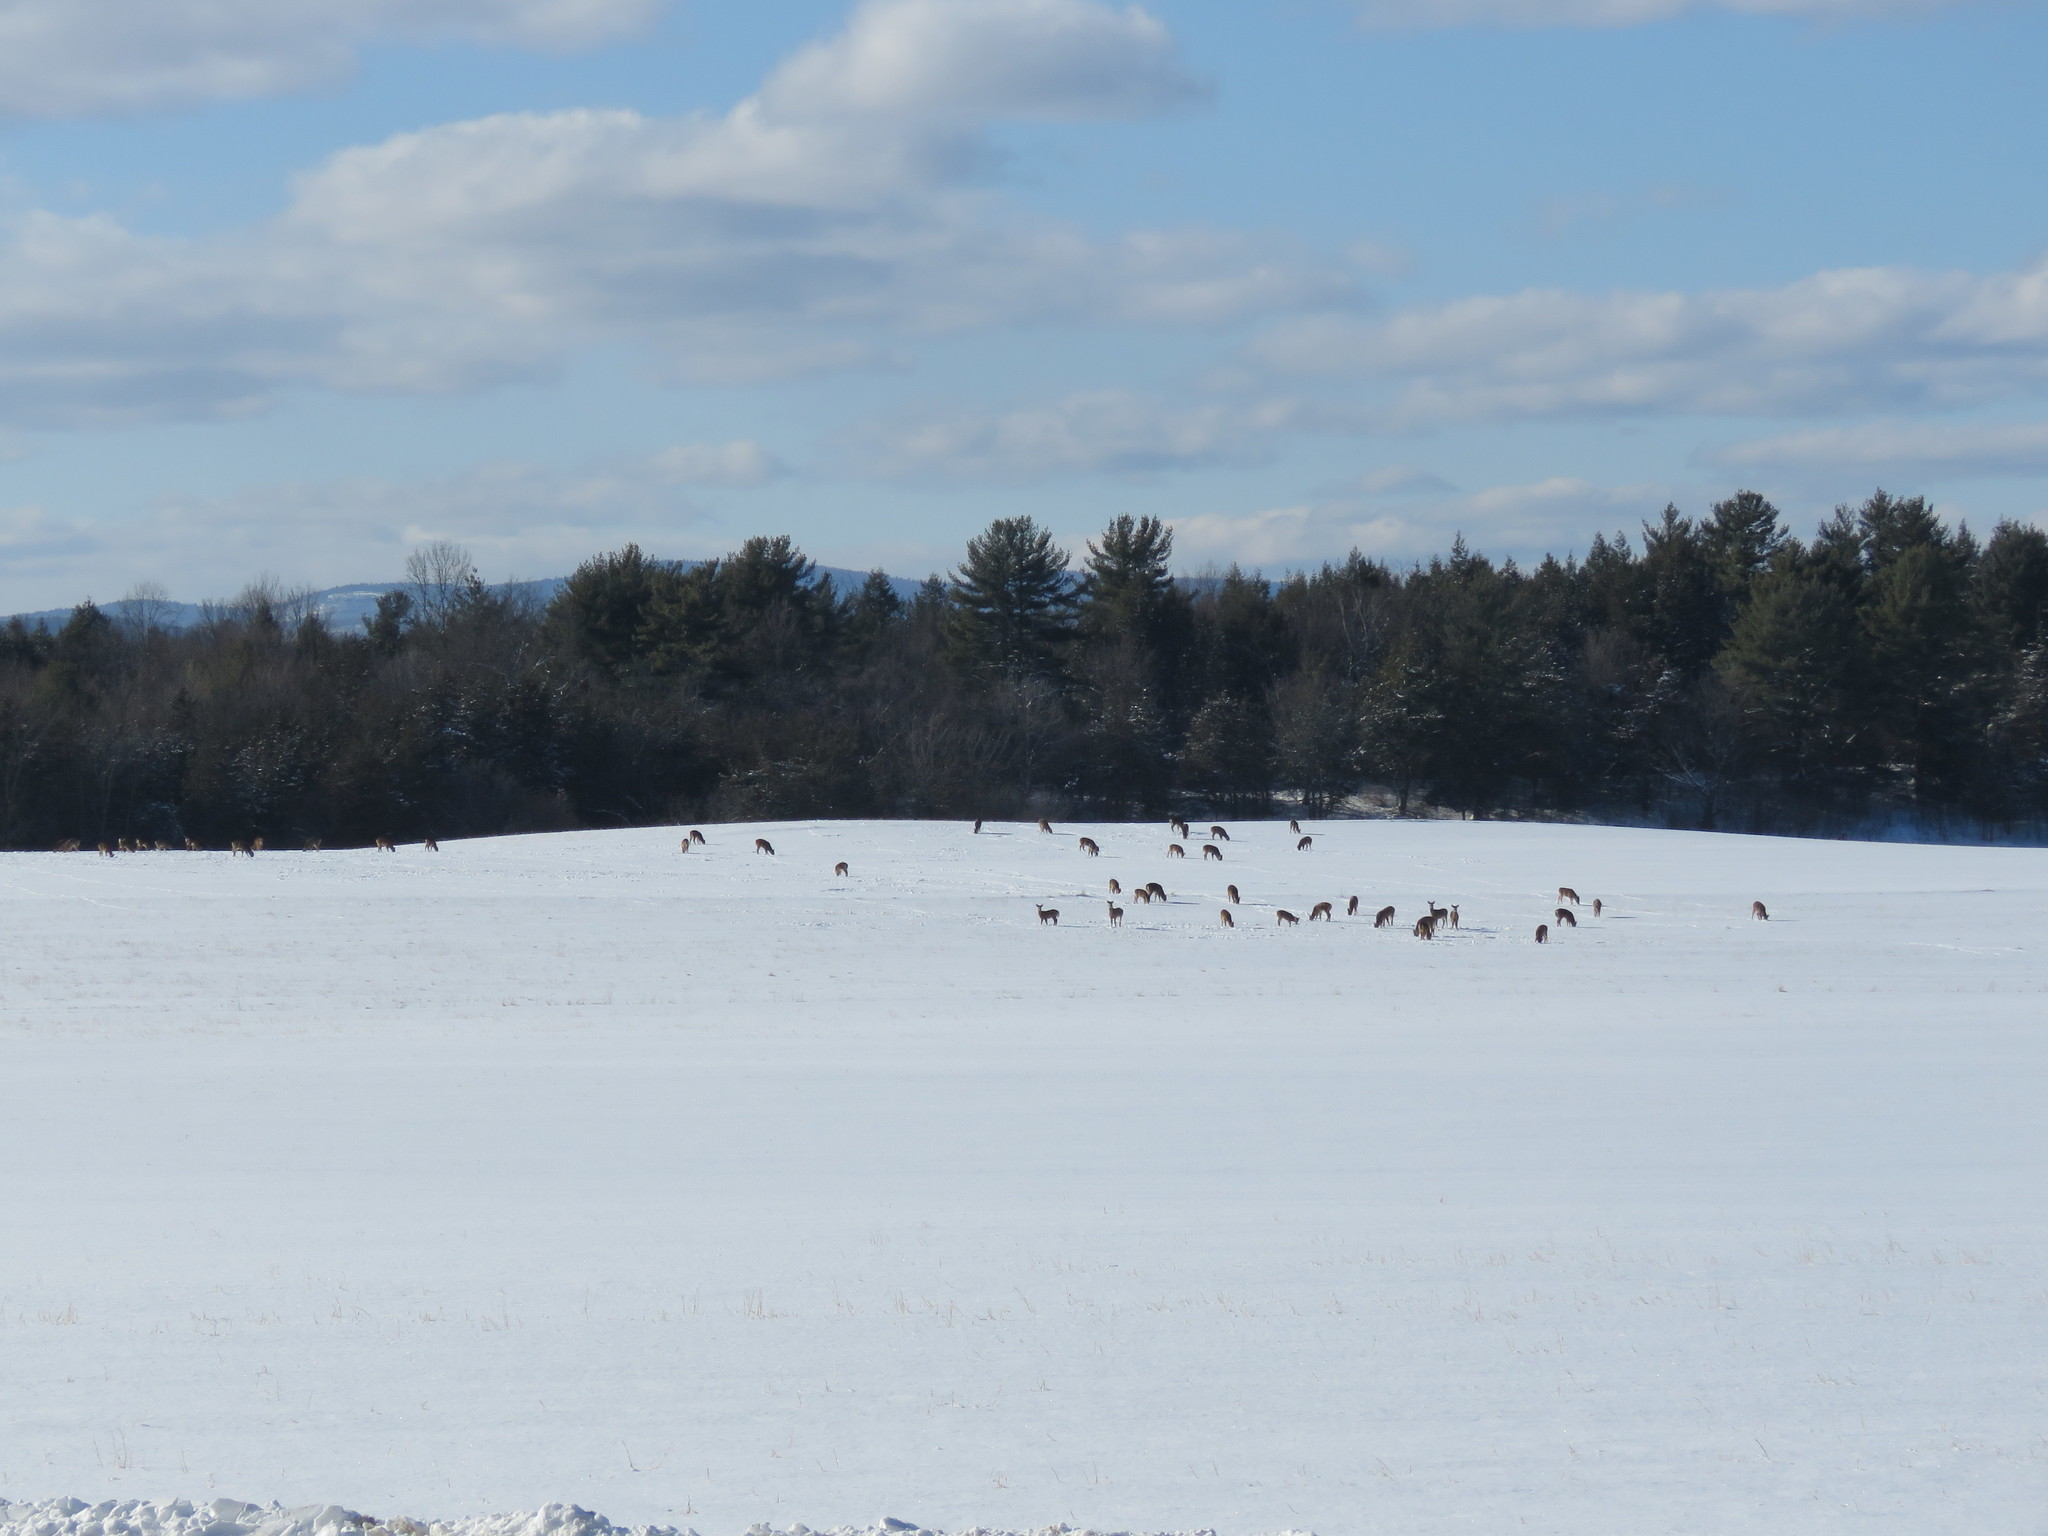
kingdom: Animalia
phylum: Chordata
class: Mammalia
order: Artiodactyla
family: Cervidae
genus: Odocoileus
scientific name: Odocoileus virginianus
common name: White-tailed deer
